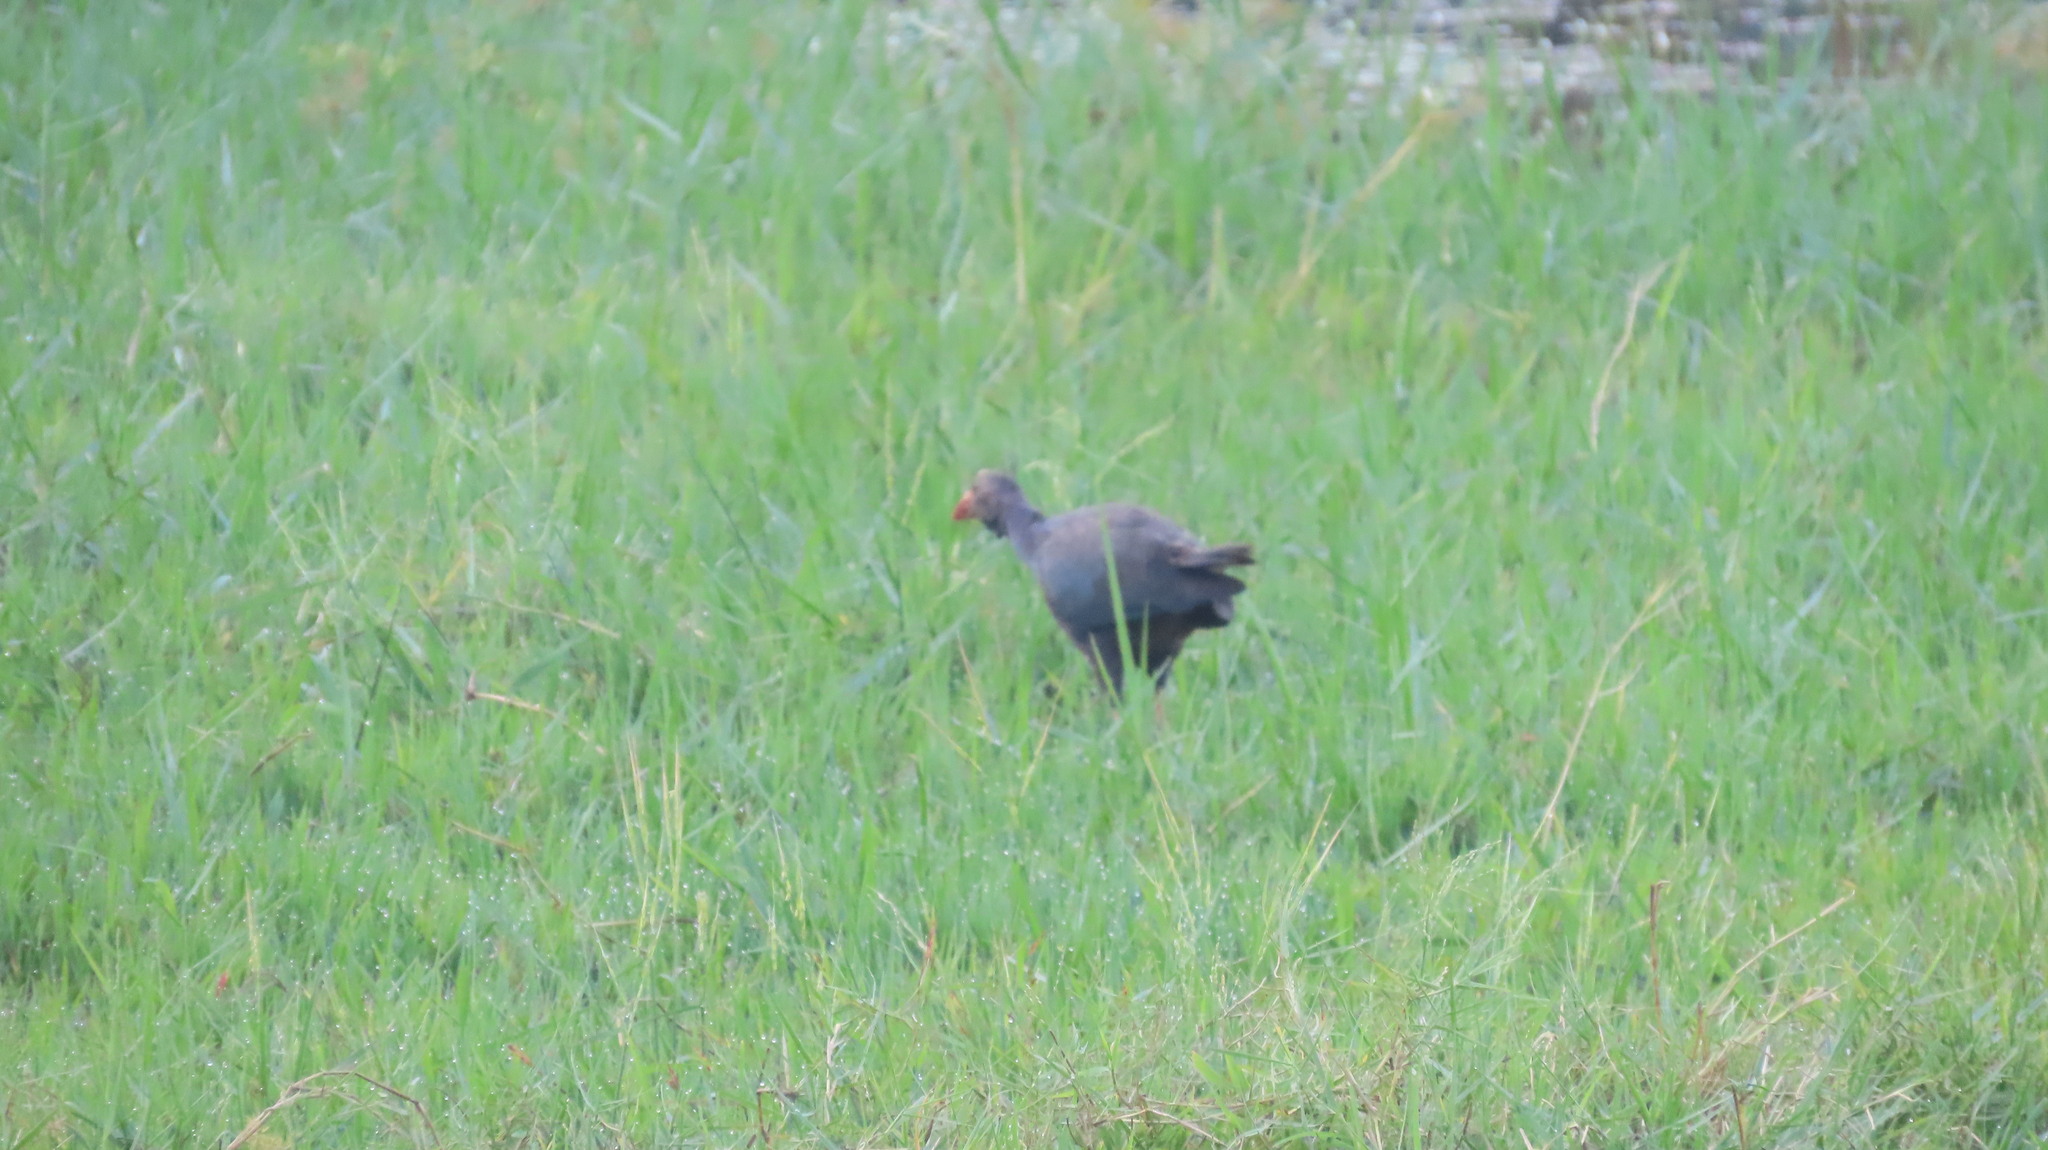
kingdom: Animalia
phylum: Chordata
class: Aves
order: Gruiformes
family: Rallidae
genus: Porphyrio
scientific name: Porphyrio porphyrio
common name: Purple swamphen
